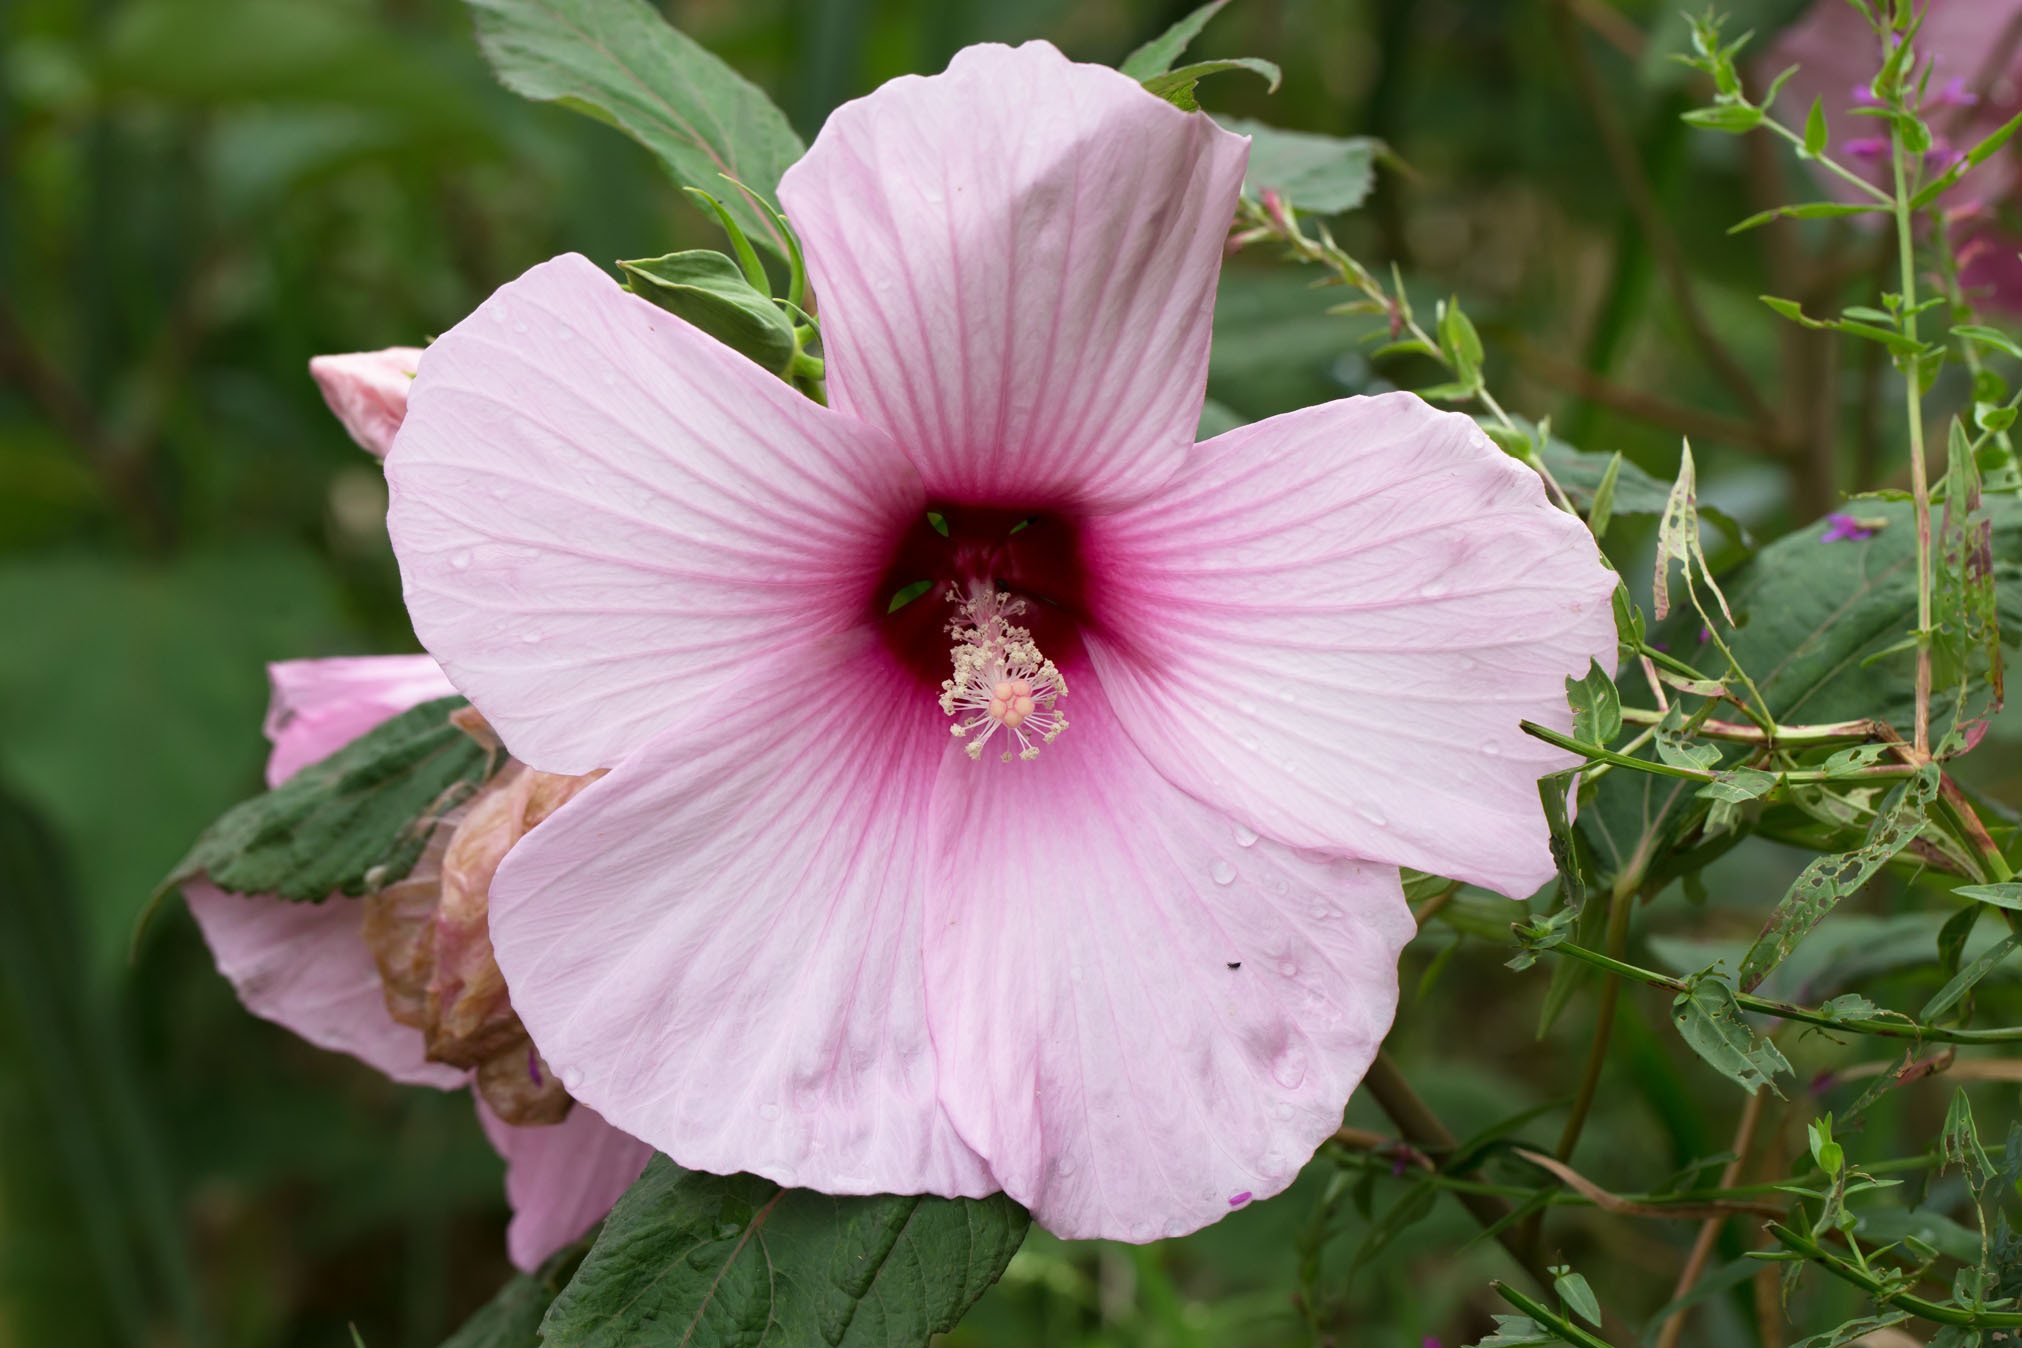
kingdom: Plantae
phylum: Tracheophyta
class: Magnoliopsida
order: Malvales
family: Malvaceae
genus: Hibiscus
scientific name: Hibiscus moscheutos
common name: Common rose-mallow
